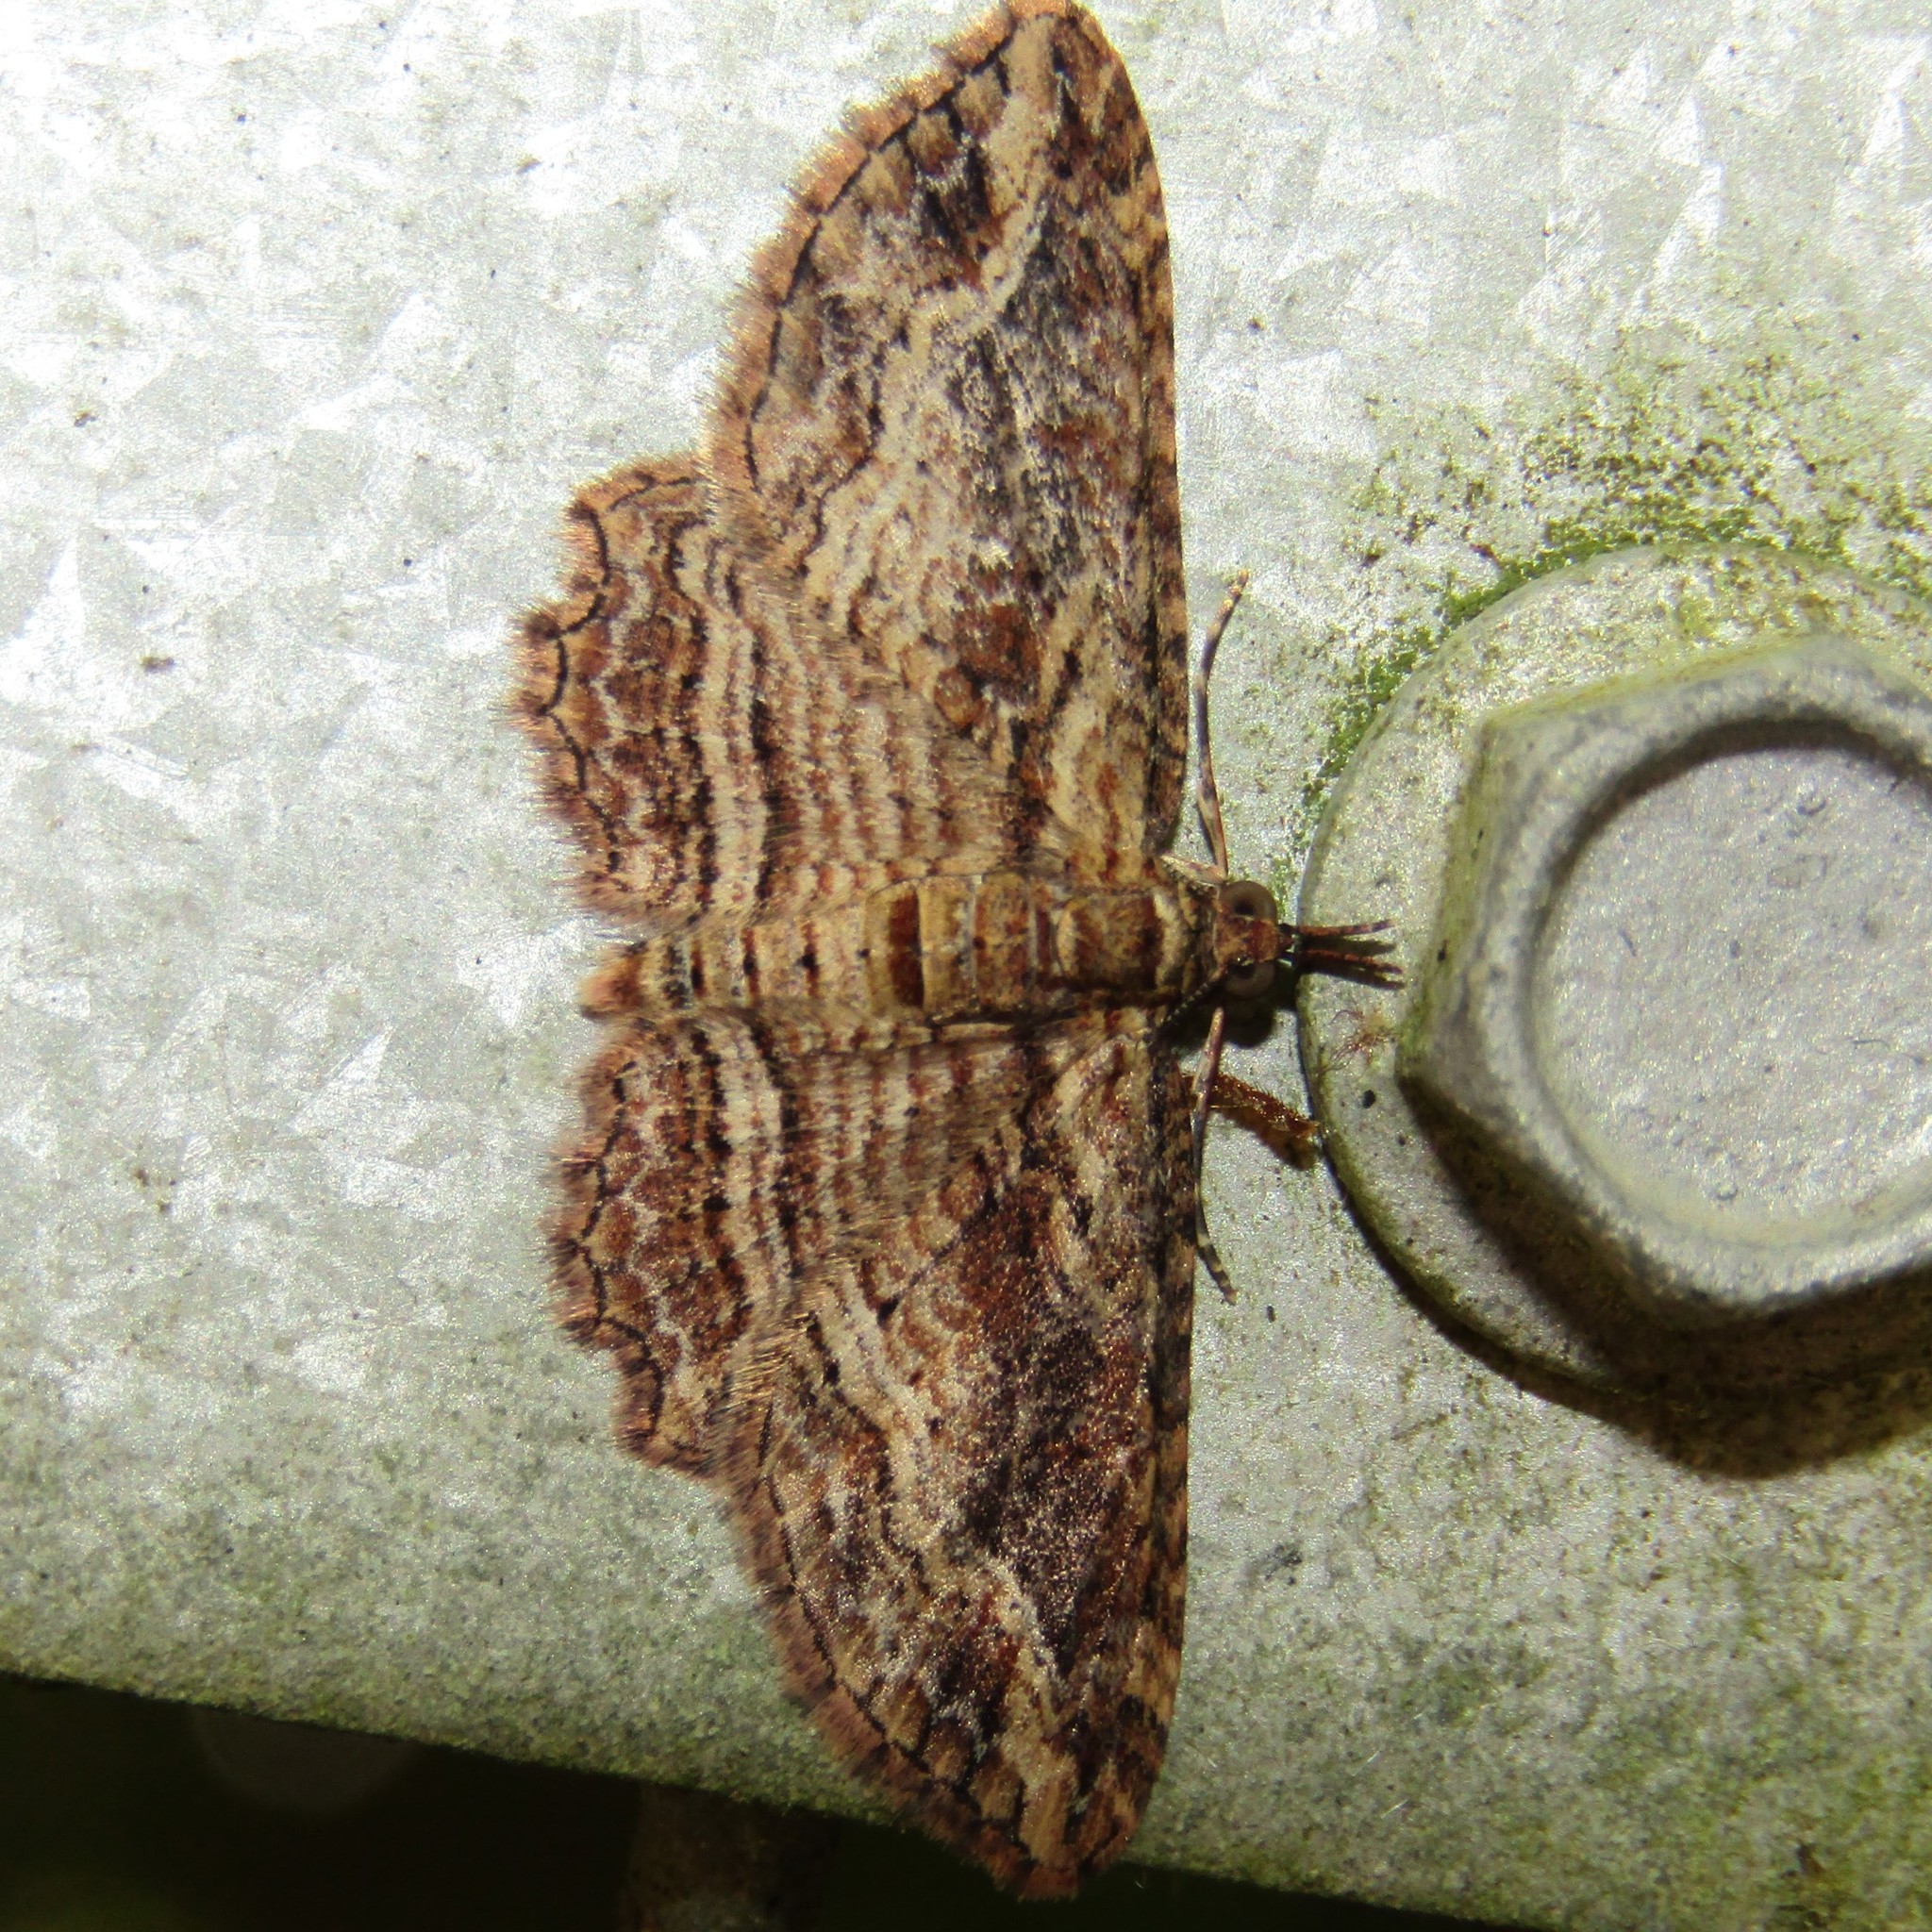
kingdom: Animalia
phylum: Arthropoda
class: Insecta
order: Lepidoptera
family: Geometridae
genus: Chloroclystis
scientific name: Chloroclystis filata
